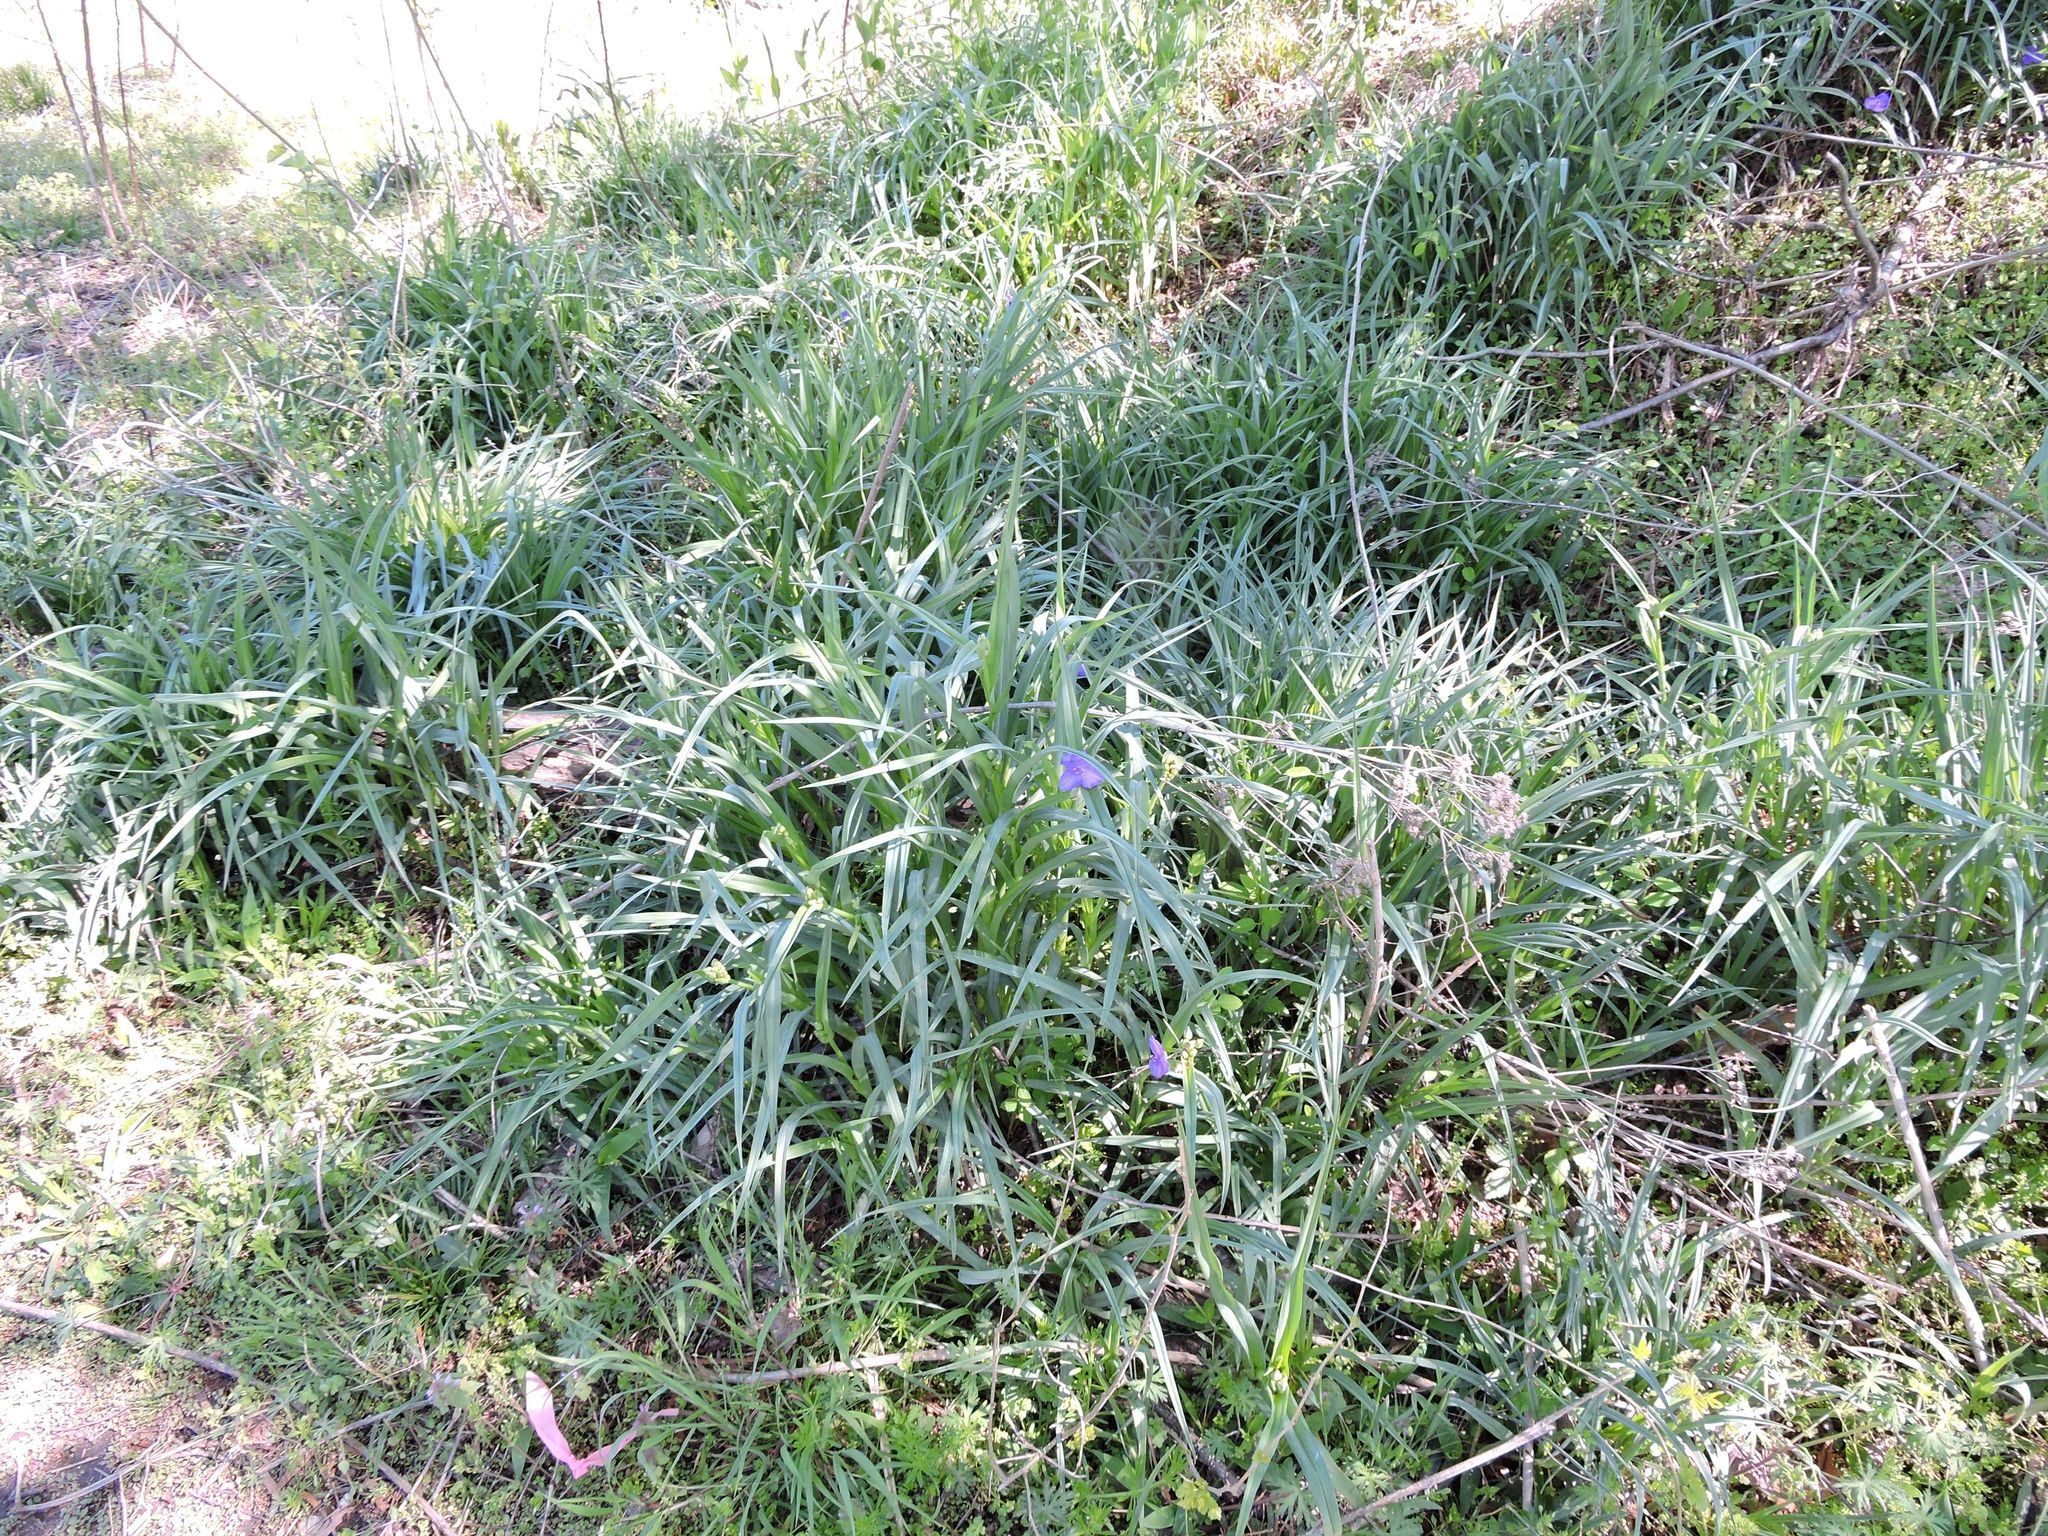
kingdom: Plantae
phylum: Tracheophyta
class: Liliopsida
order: Commelinales
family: Commelinaceae
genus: Tradescantia
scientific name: Tradescantia ohiensis
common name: Ohio spiderwort
